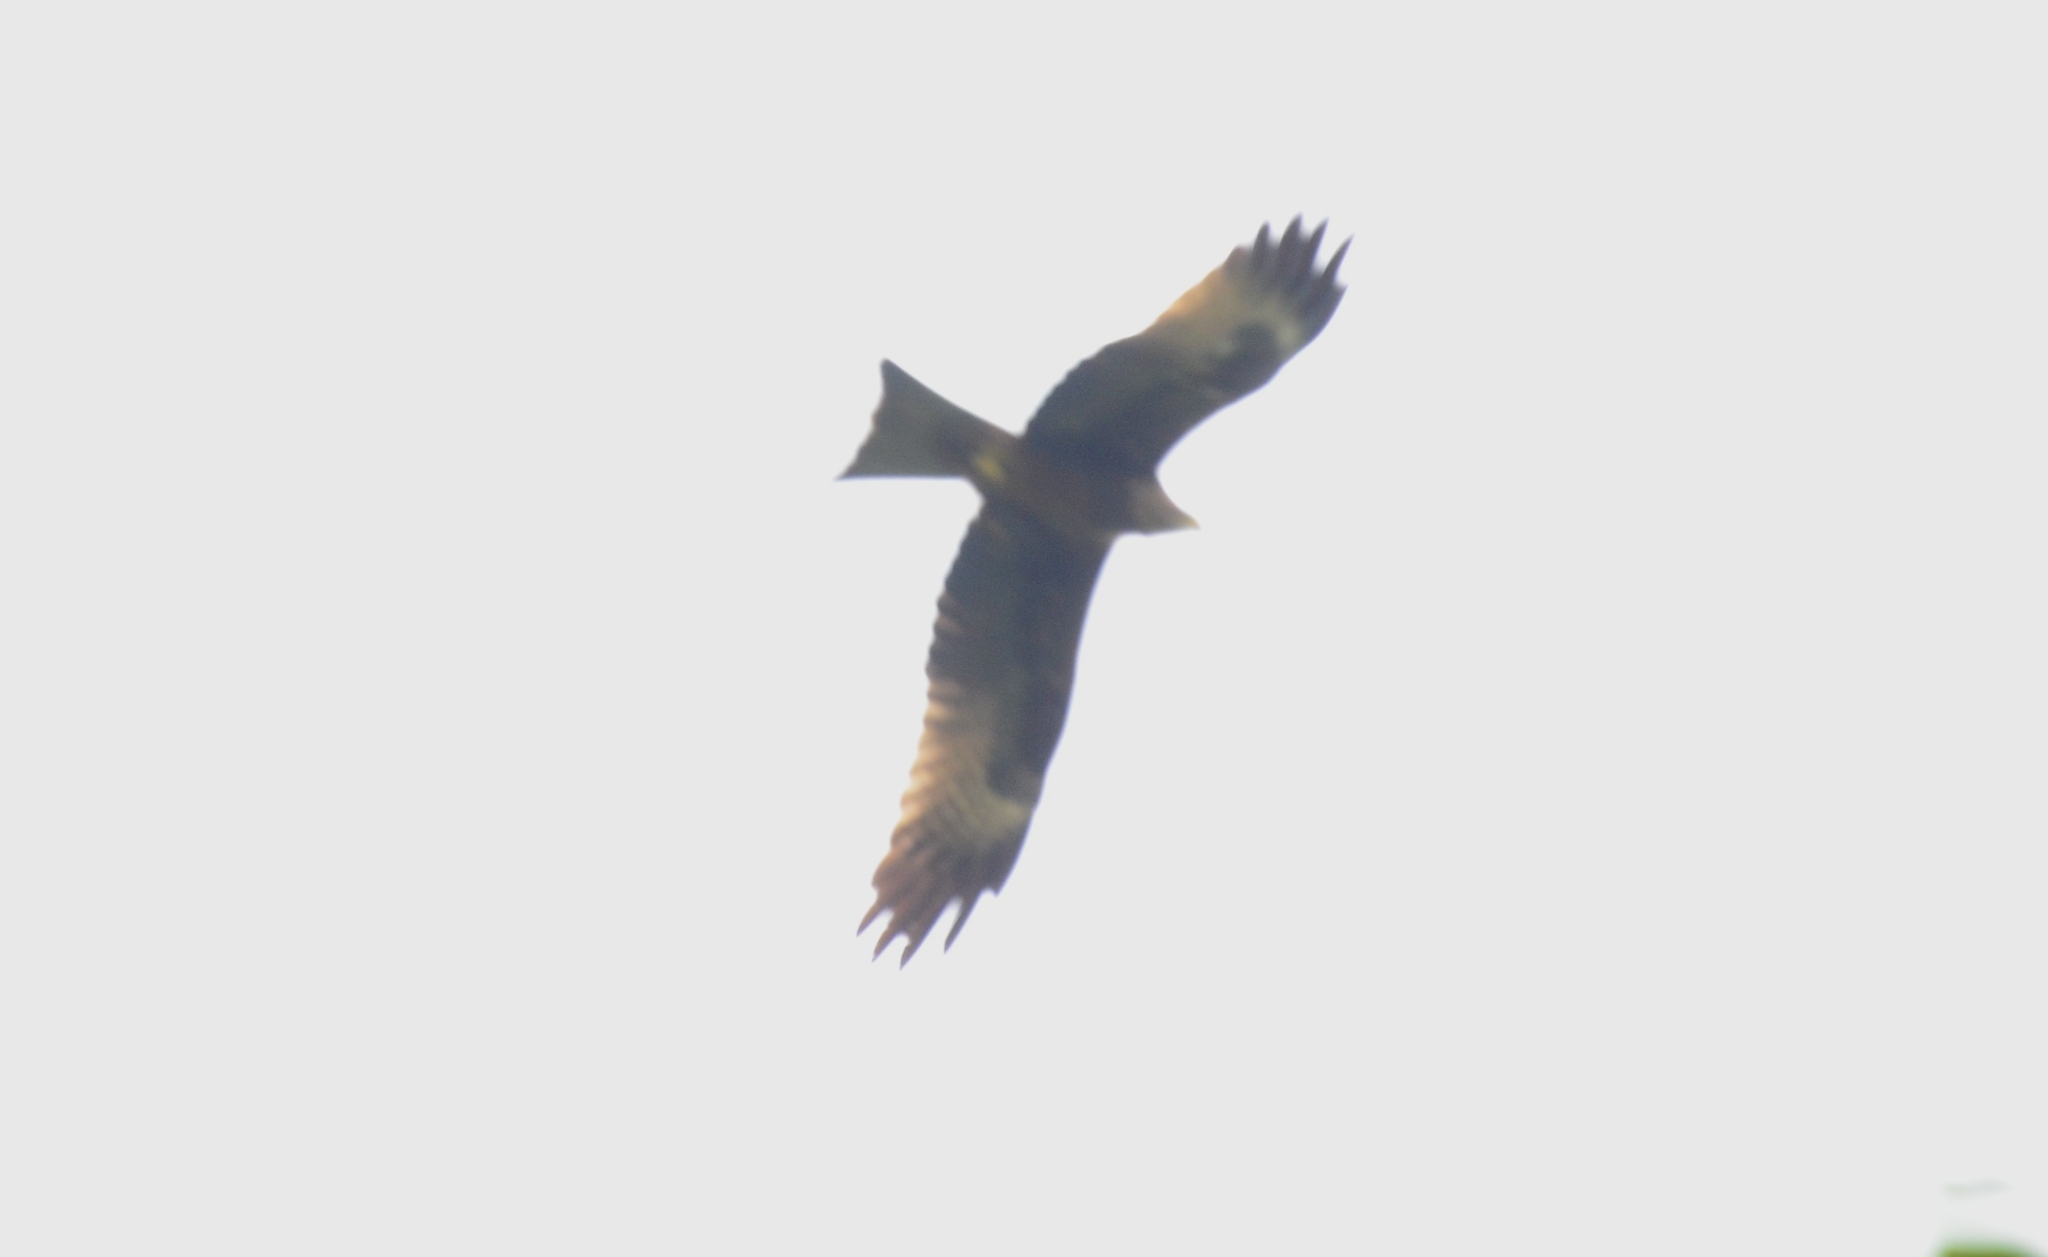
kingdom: Animalia
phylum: Chordata
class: Aves
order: Accipitriformes
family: Accipitridae
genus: Milvus
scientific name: Milvus migrans
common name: Black kite
